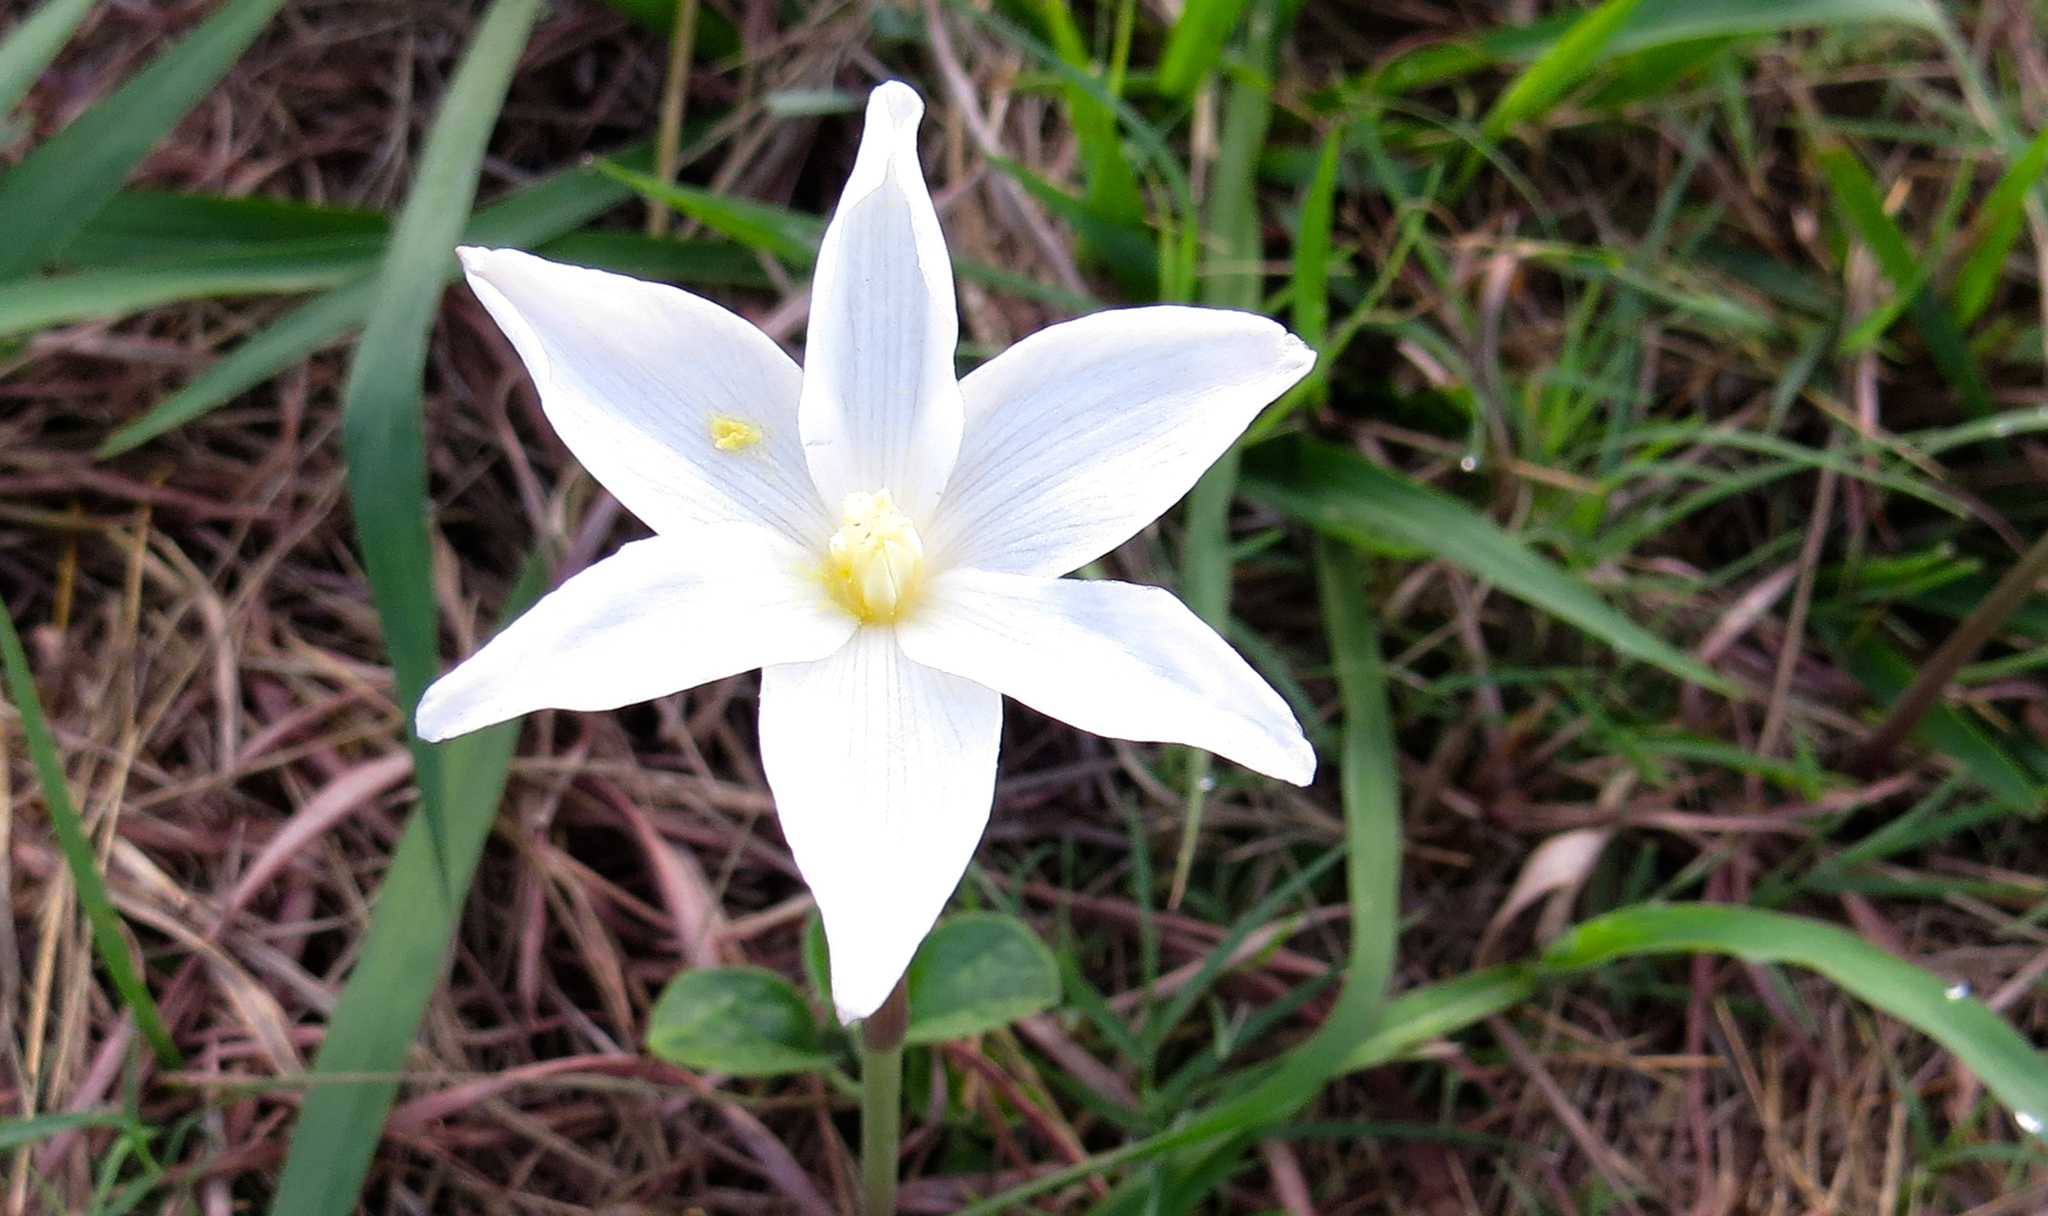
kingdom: Plantae
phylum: Tracheophyta
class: Liliopsida
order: Asparagales
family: Amaryllidaceae
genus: Zephyranthes
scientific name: Zephyranthes chlorosolen
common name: Evening rain-lily
